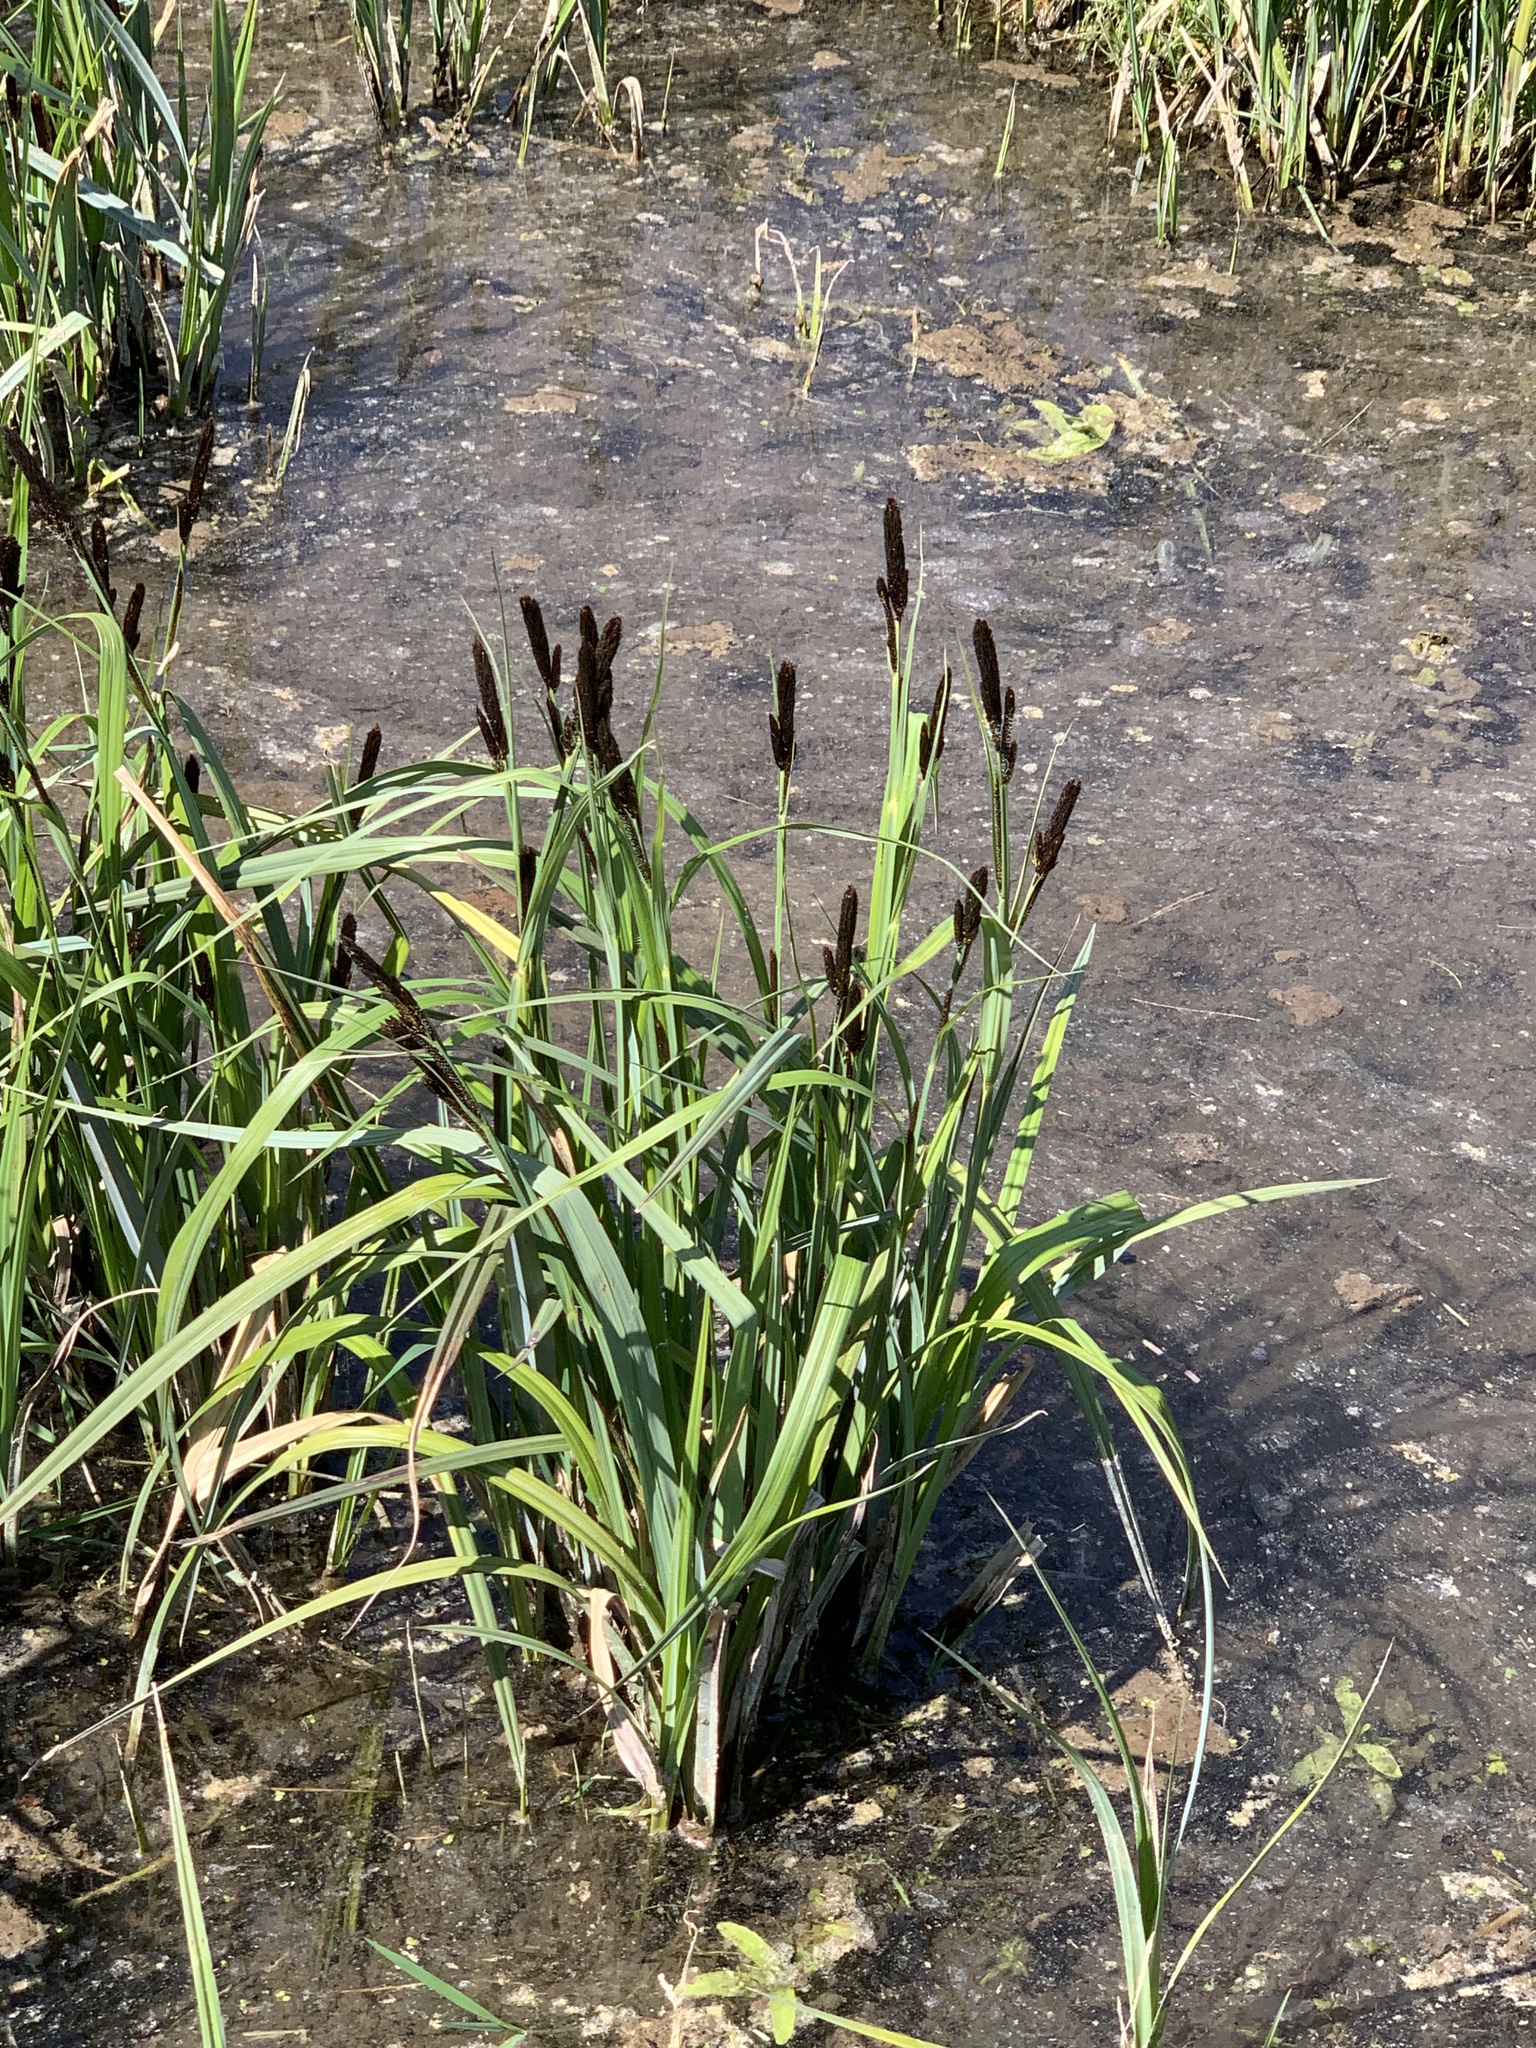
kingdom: Plantae
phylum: Tracheophyta
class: Liliopsida
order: Poales
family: Cyperaceae
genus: Carex
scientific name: Carex riparia
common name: Greater pond-sedge
